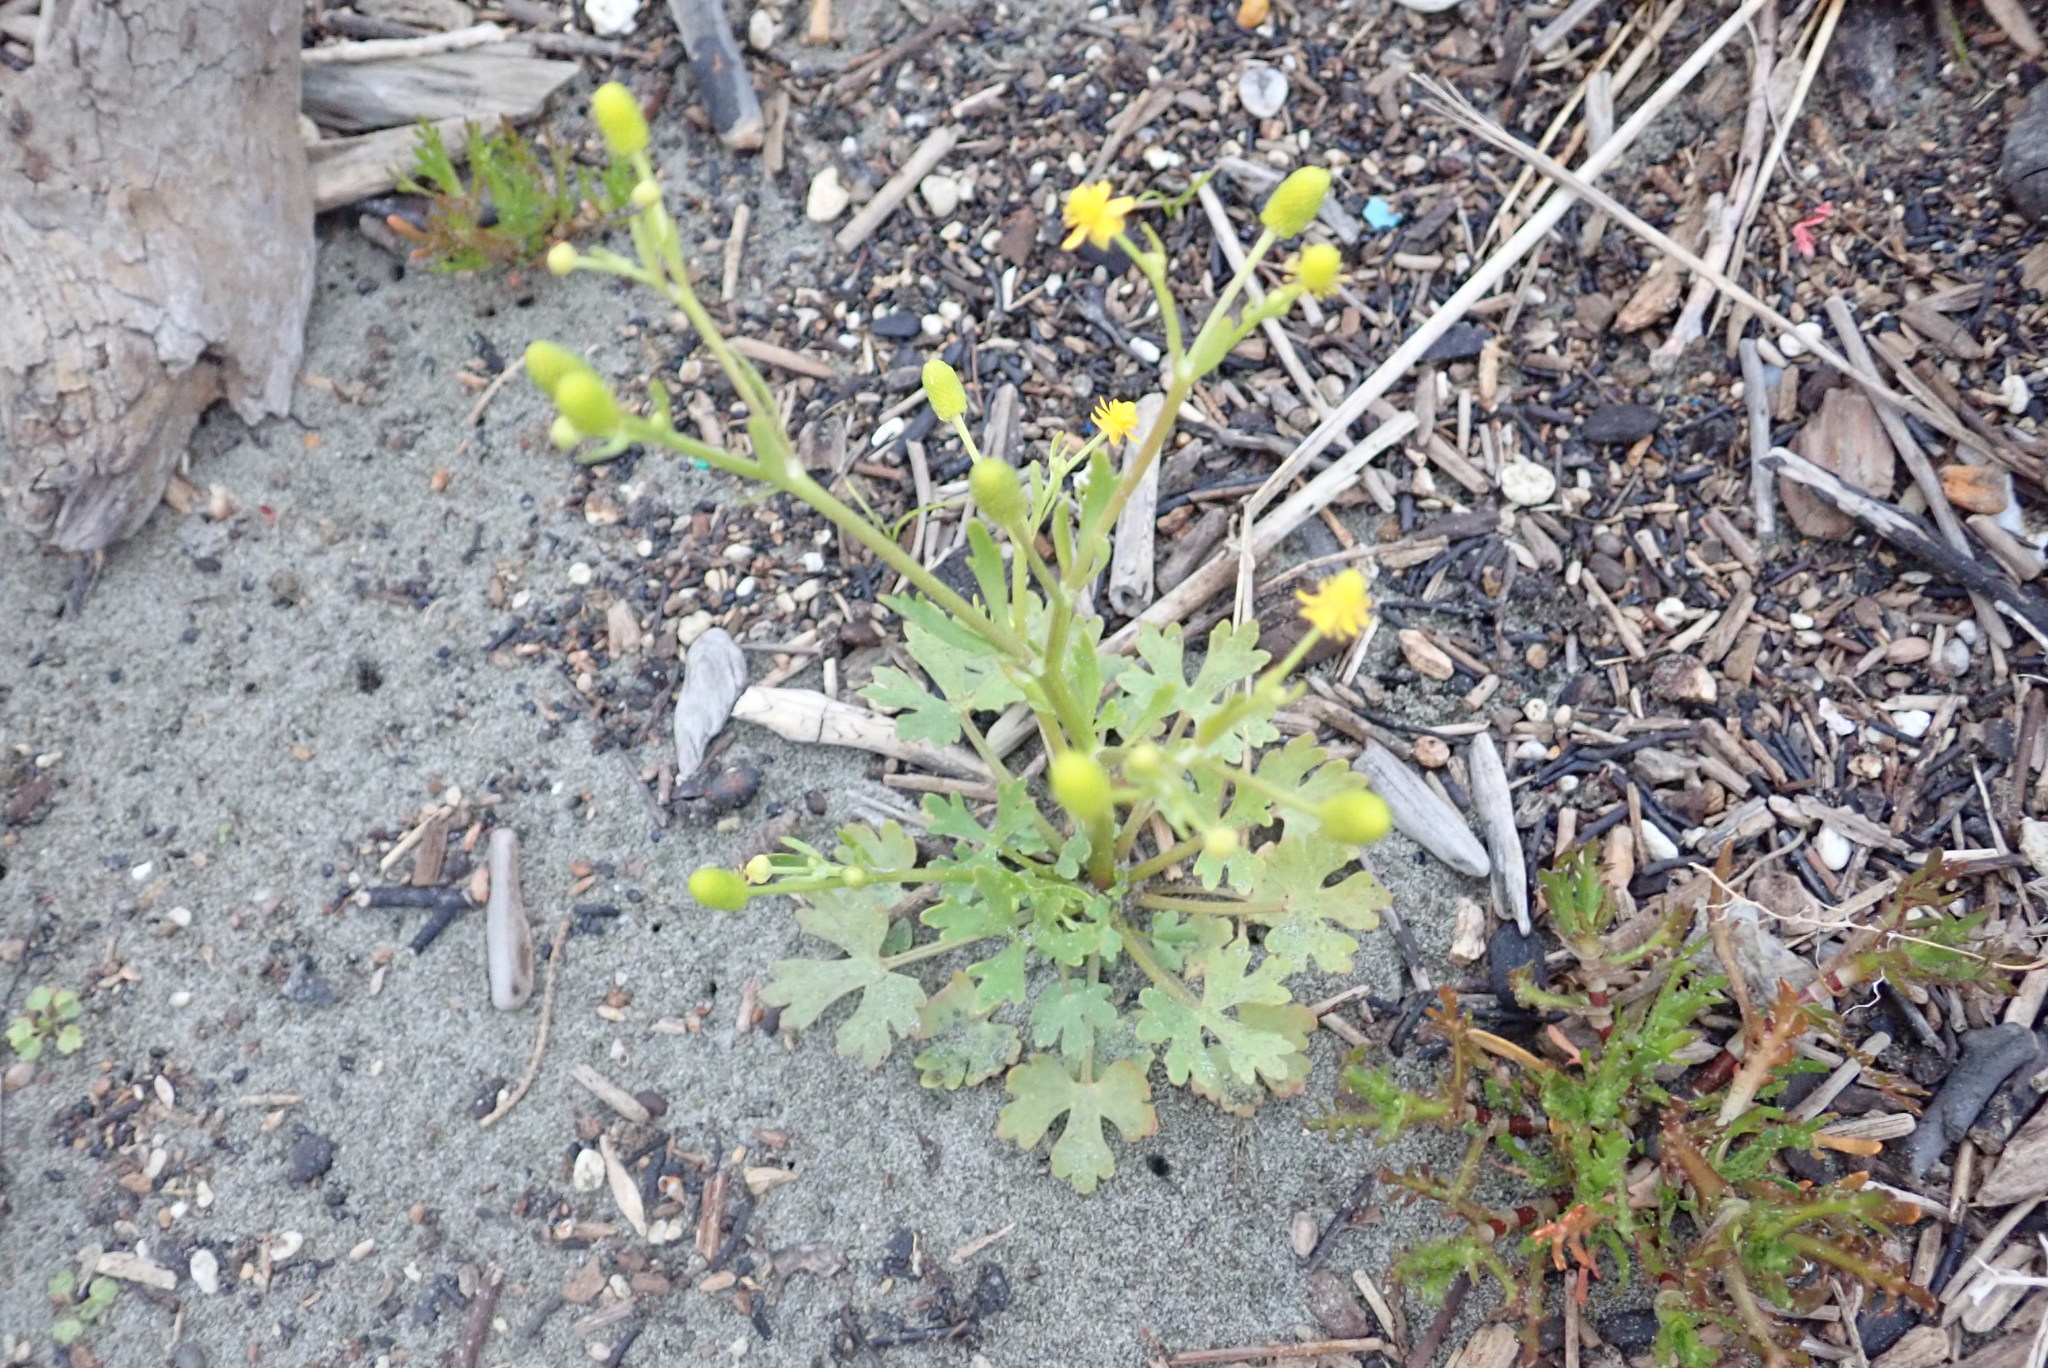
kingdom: Plantae
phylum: Tracheophyta
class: Magnoliopsida
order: Ranunculales
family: Ranunculaceae
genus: Ranunculus
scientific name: Ranunculus sceleratus
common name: Celery-leaved buttercup
